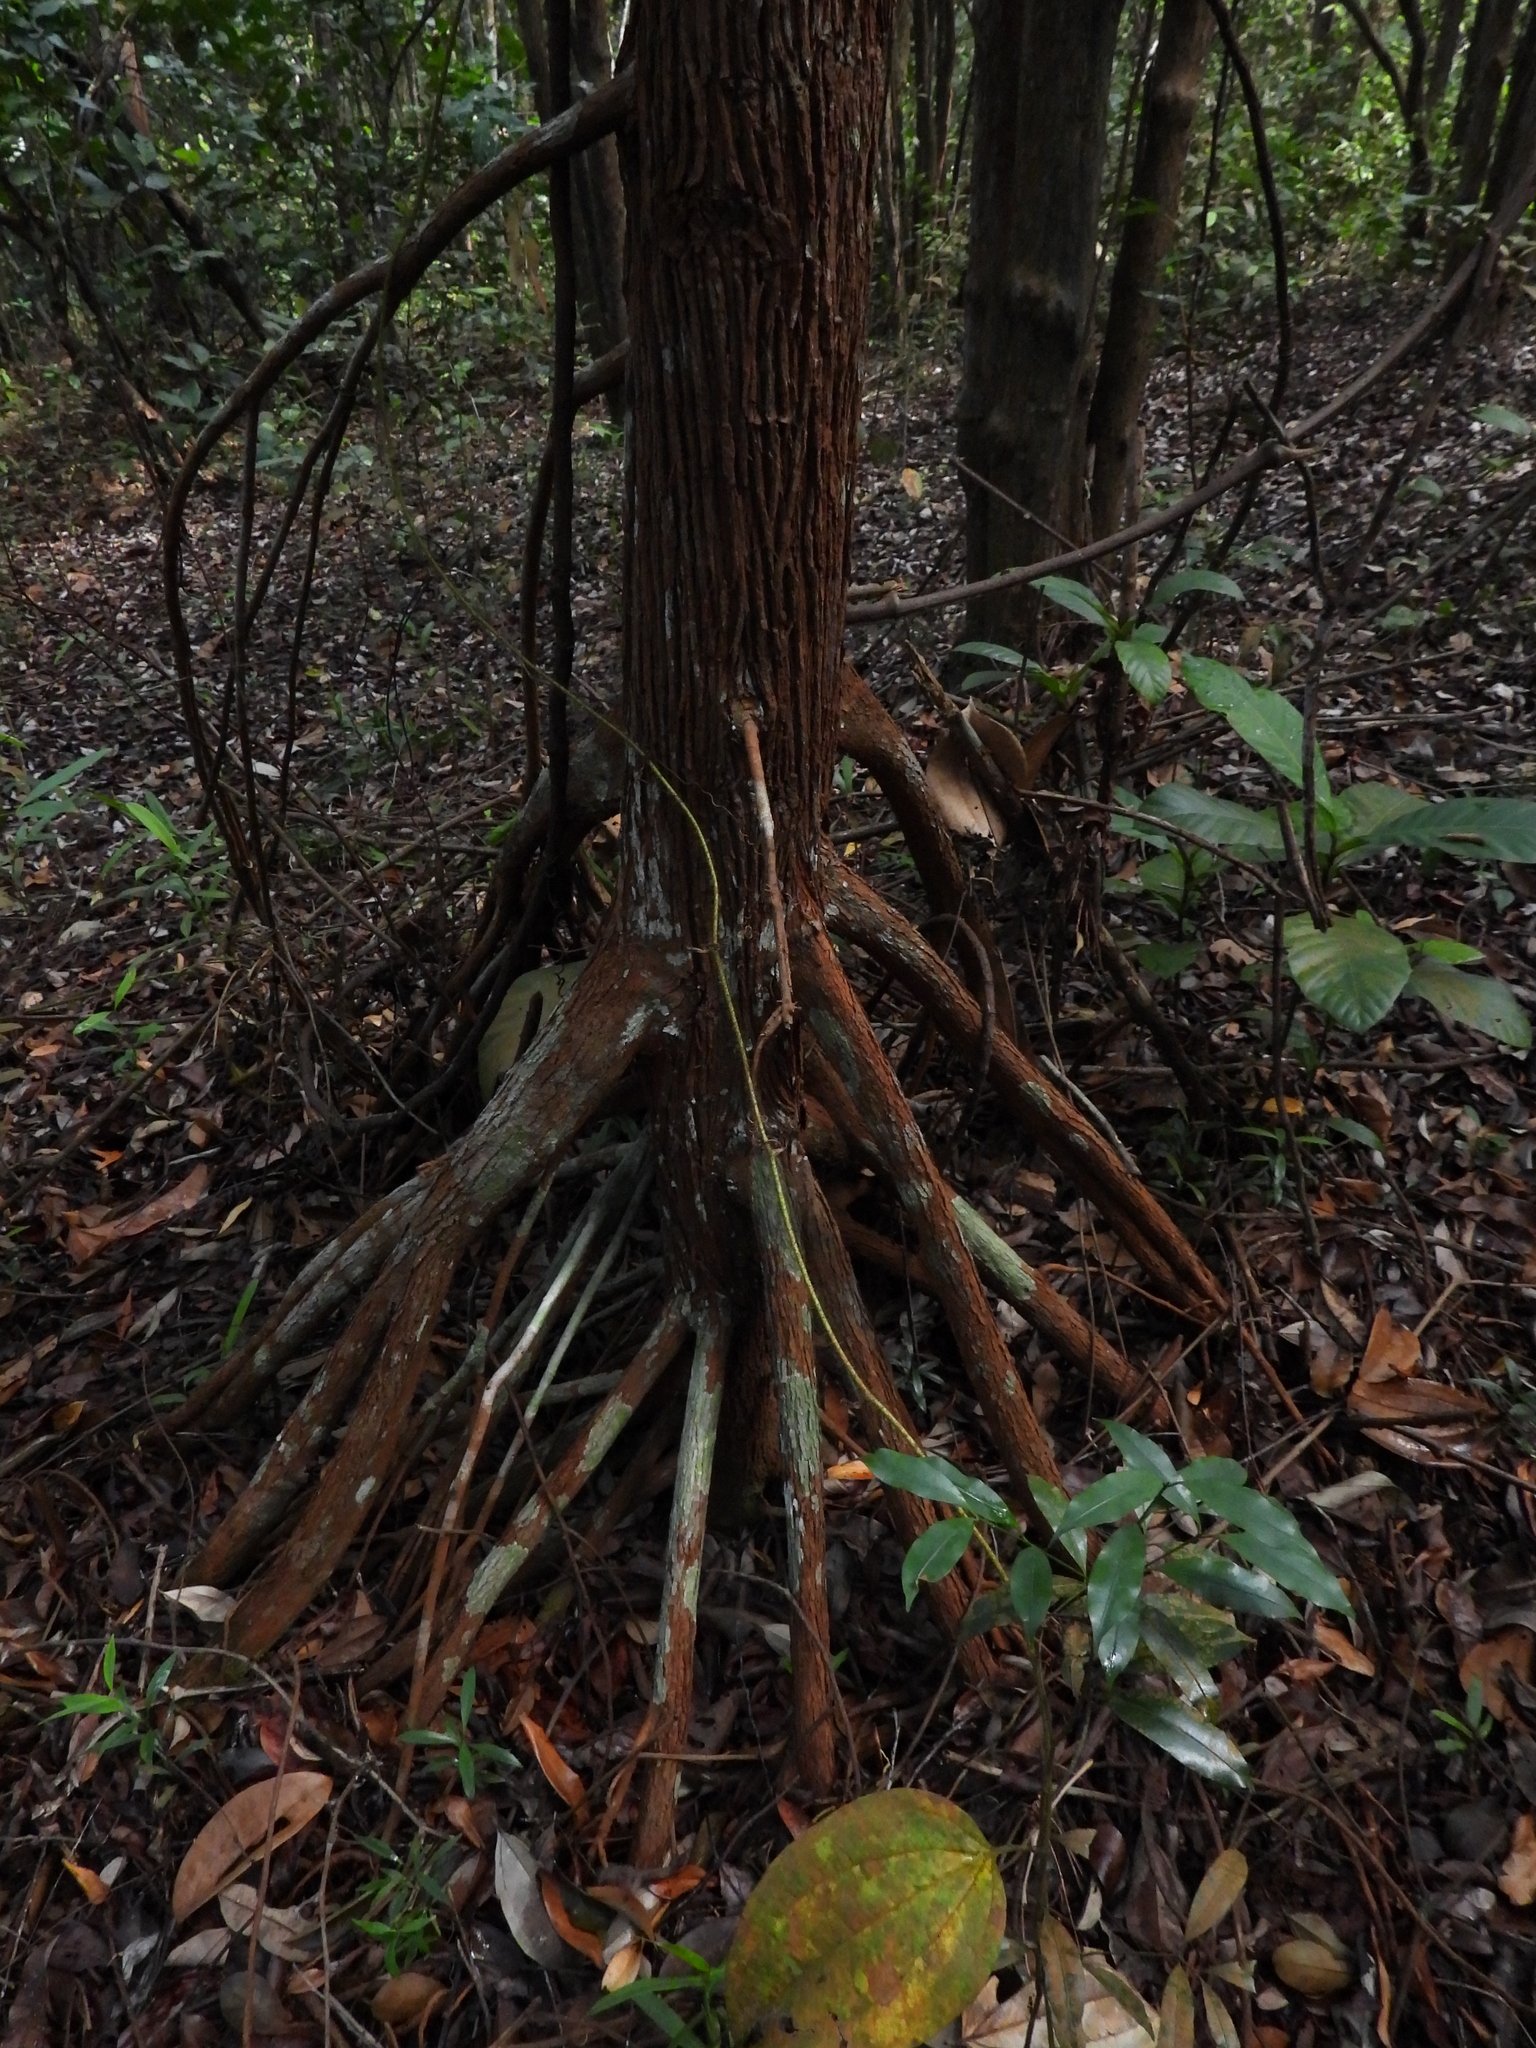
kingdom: Plantae
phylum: Tracheophyta
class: Magnoliopsida
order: Malpighiales
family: Bonnetiaceae
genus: Ploiarium
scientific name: Ploiarium elegans
